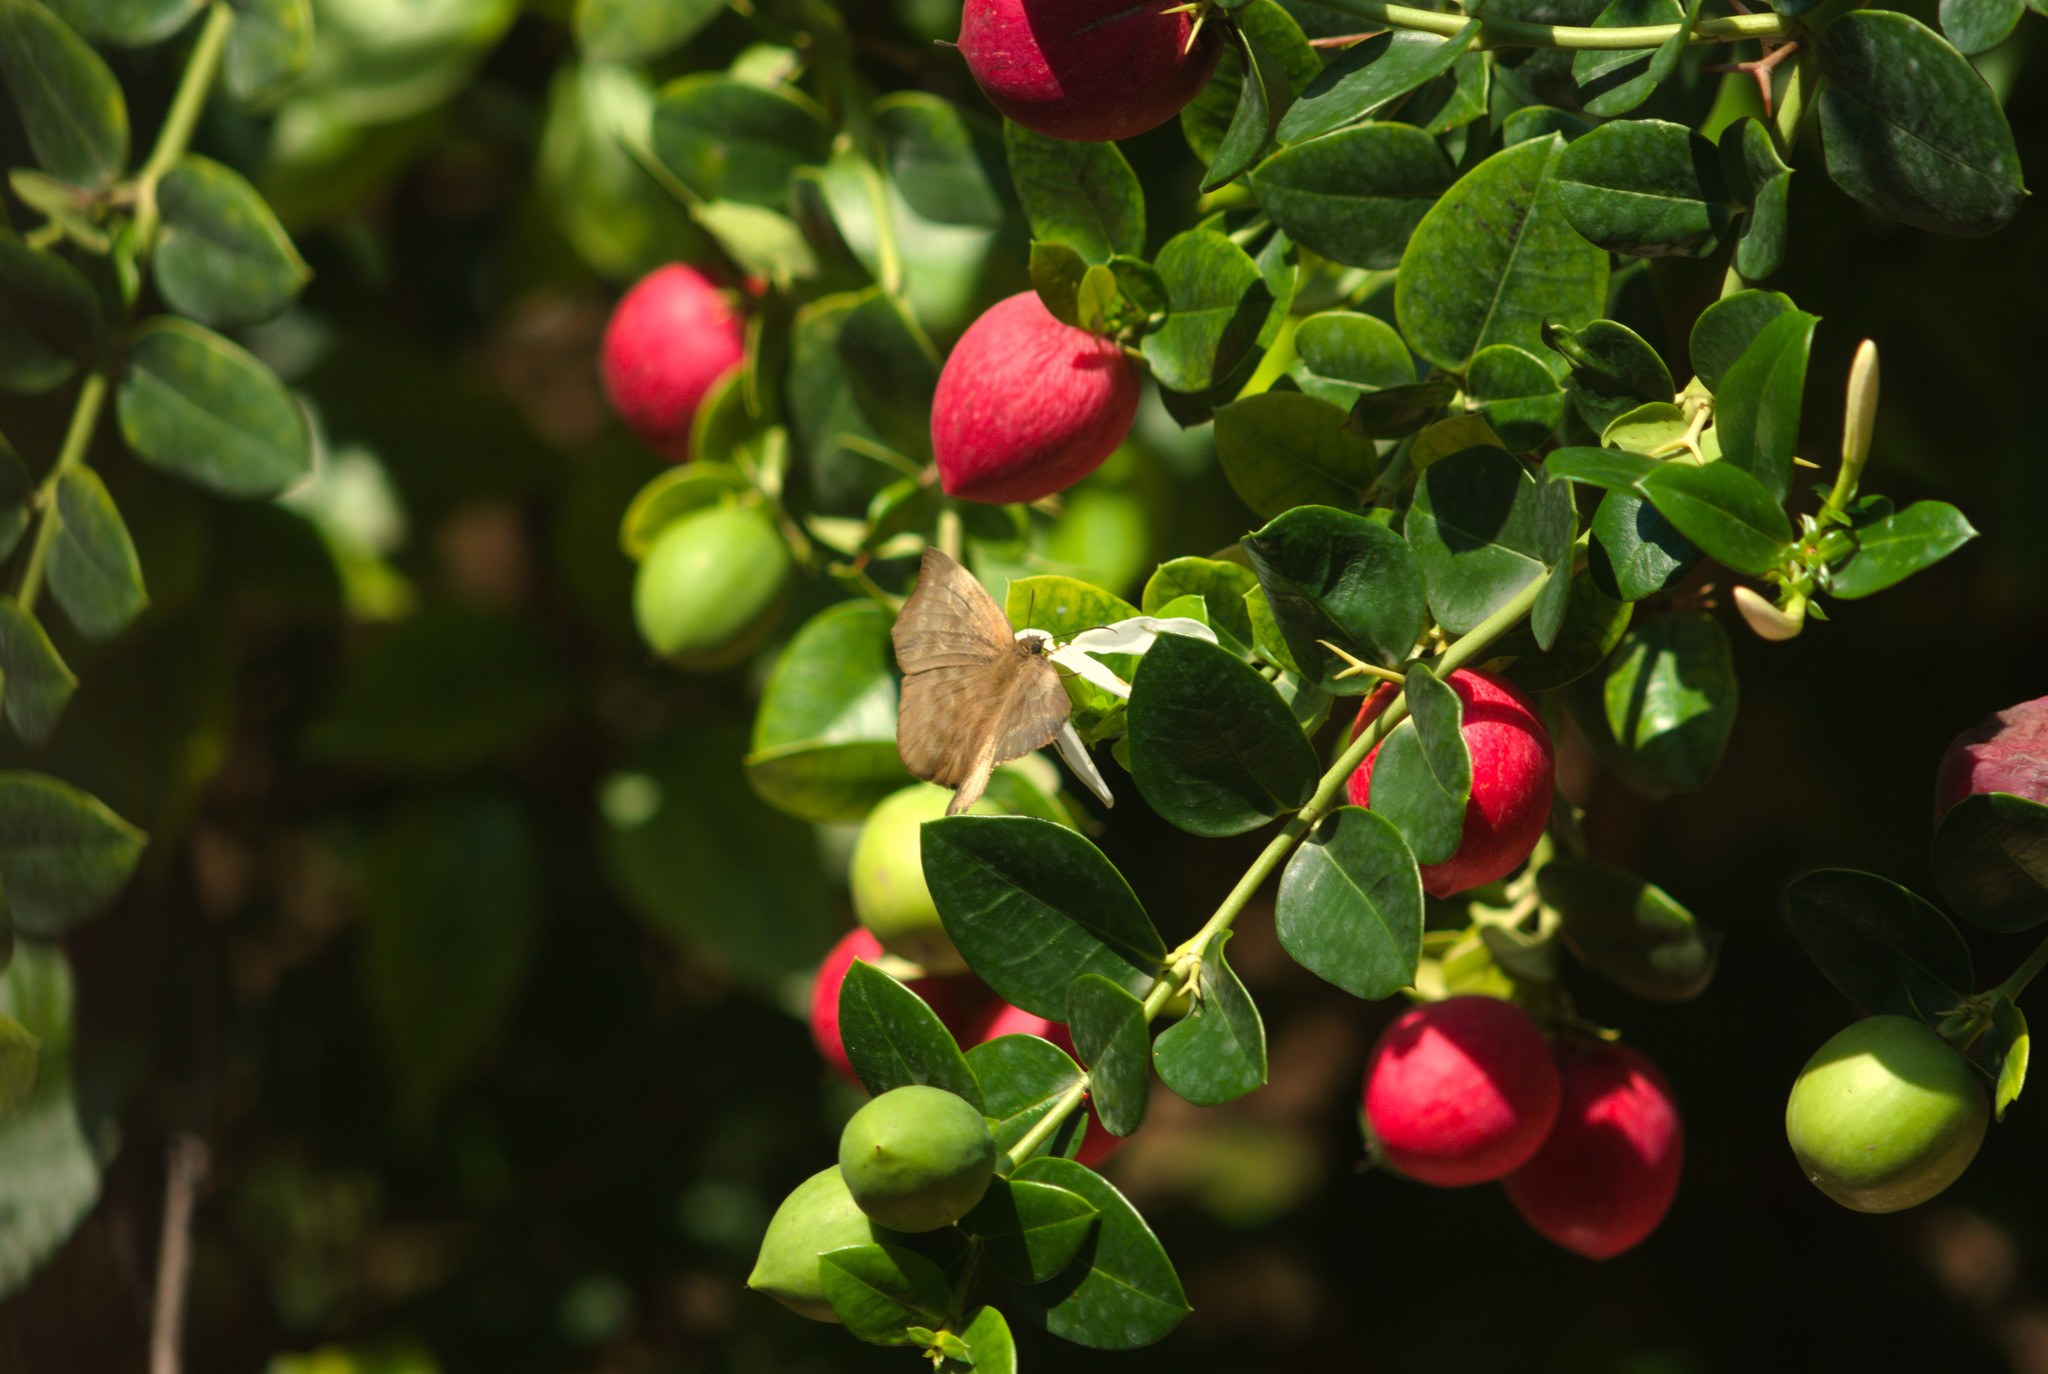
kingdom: Animalia
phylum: Arthropoda
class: Insecta
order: Lepidoptera
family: Hesperiidae
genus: Achlyodes
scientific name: Achlyodes pallida
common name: Pale sicklewing
